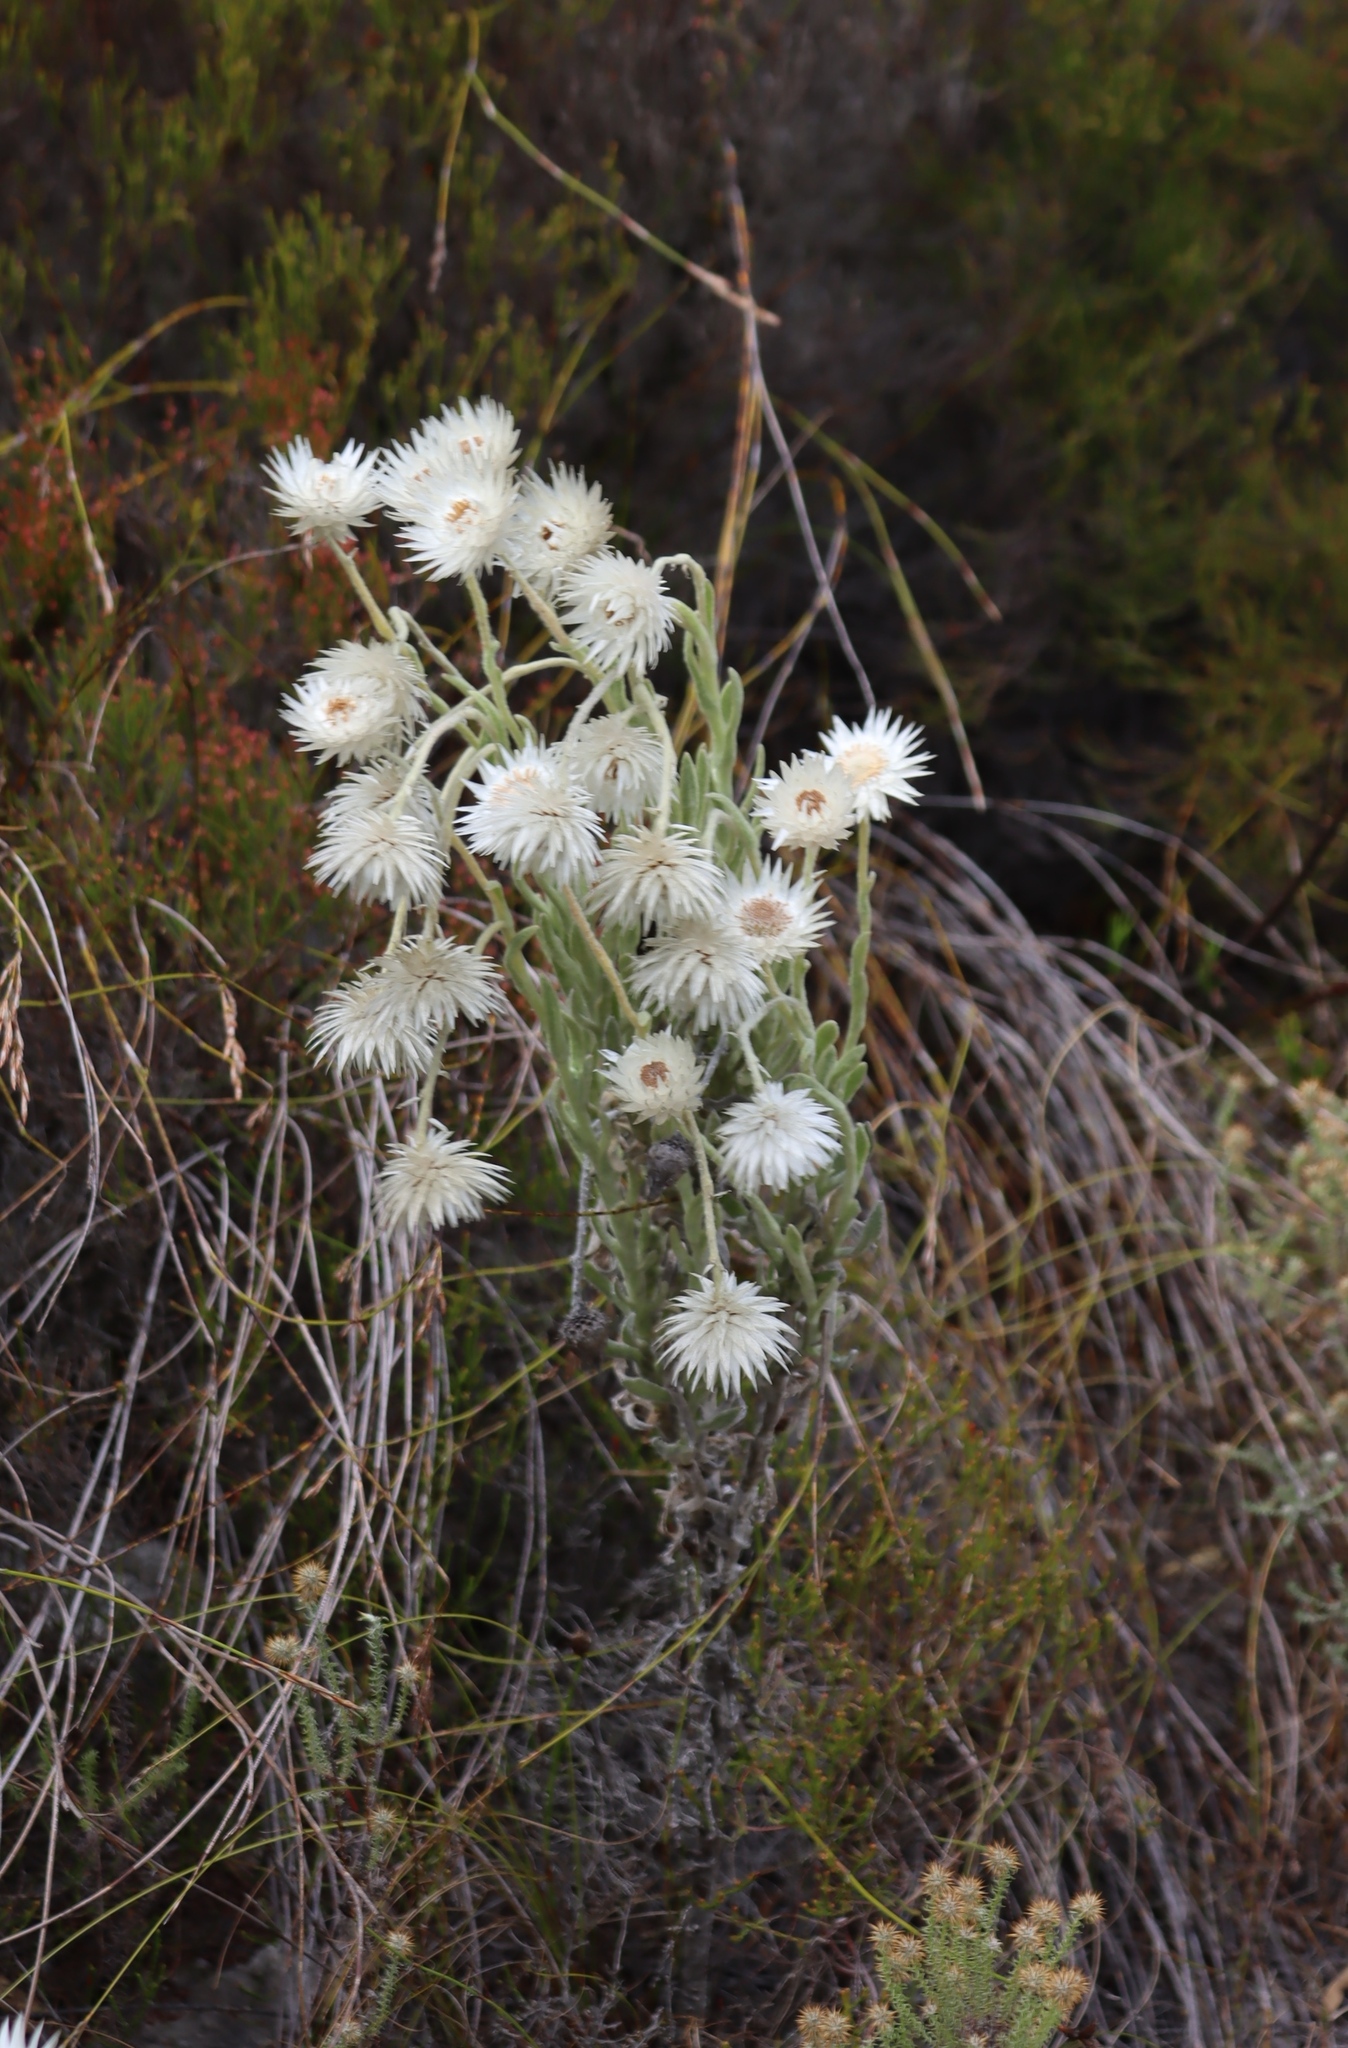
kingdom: Plantae
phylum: Tracheophyta
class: Magnoliopsida
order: Asterales
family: Asteraceae
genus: Syncarpha
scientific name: Syncarpha vestita
